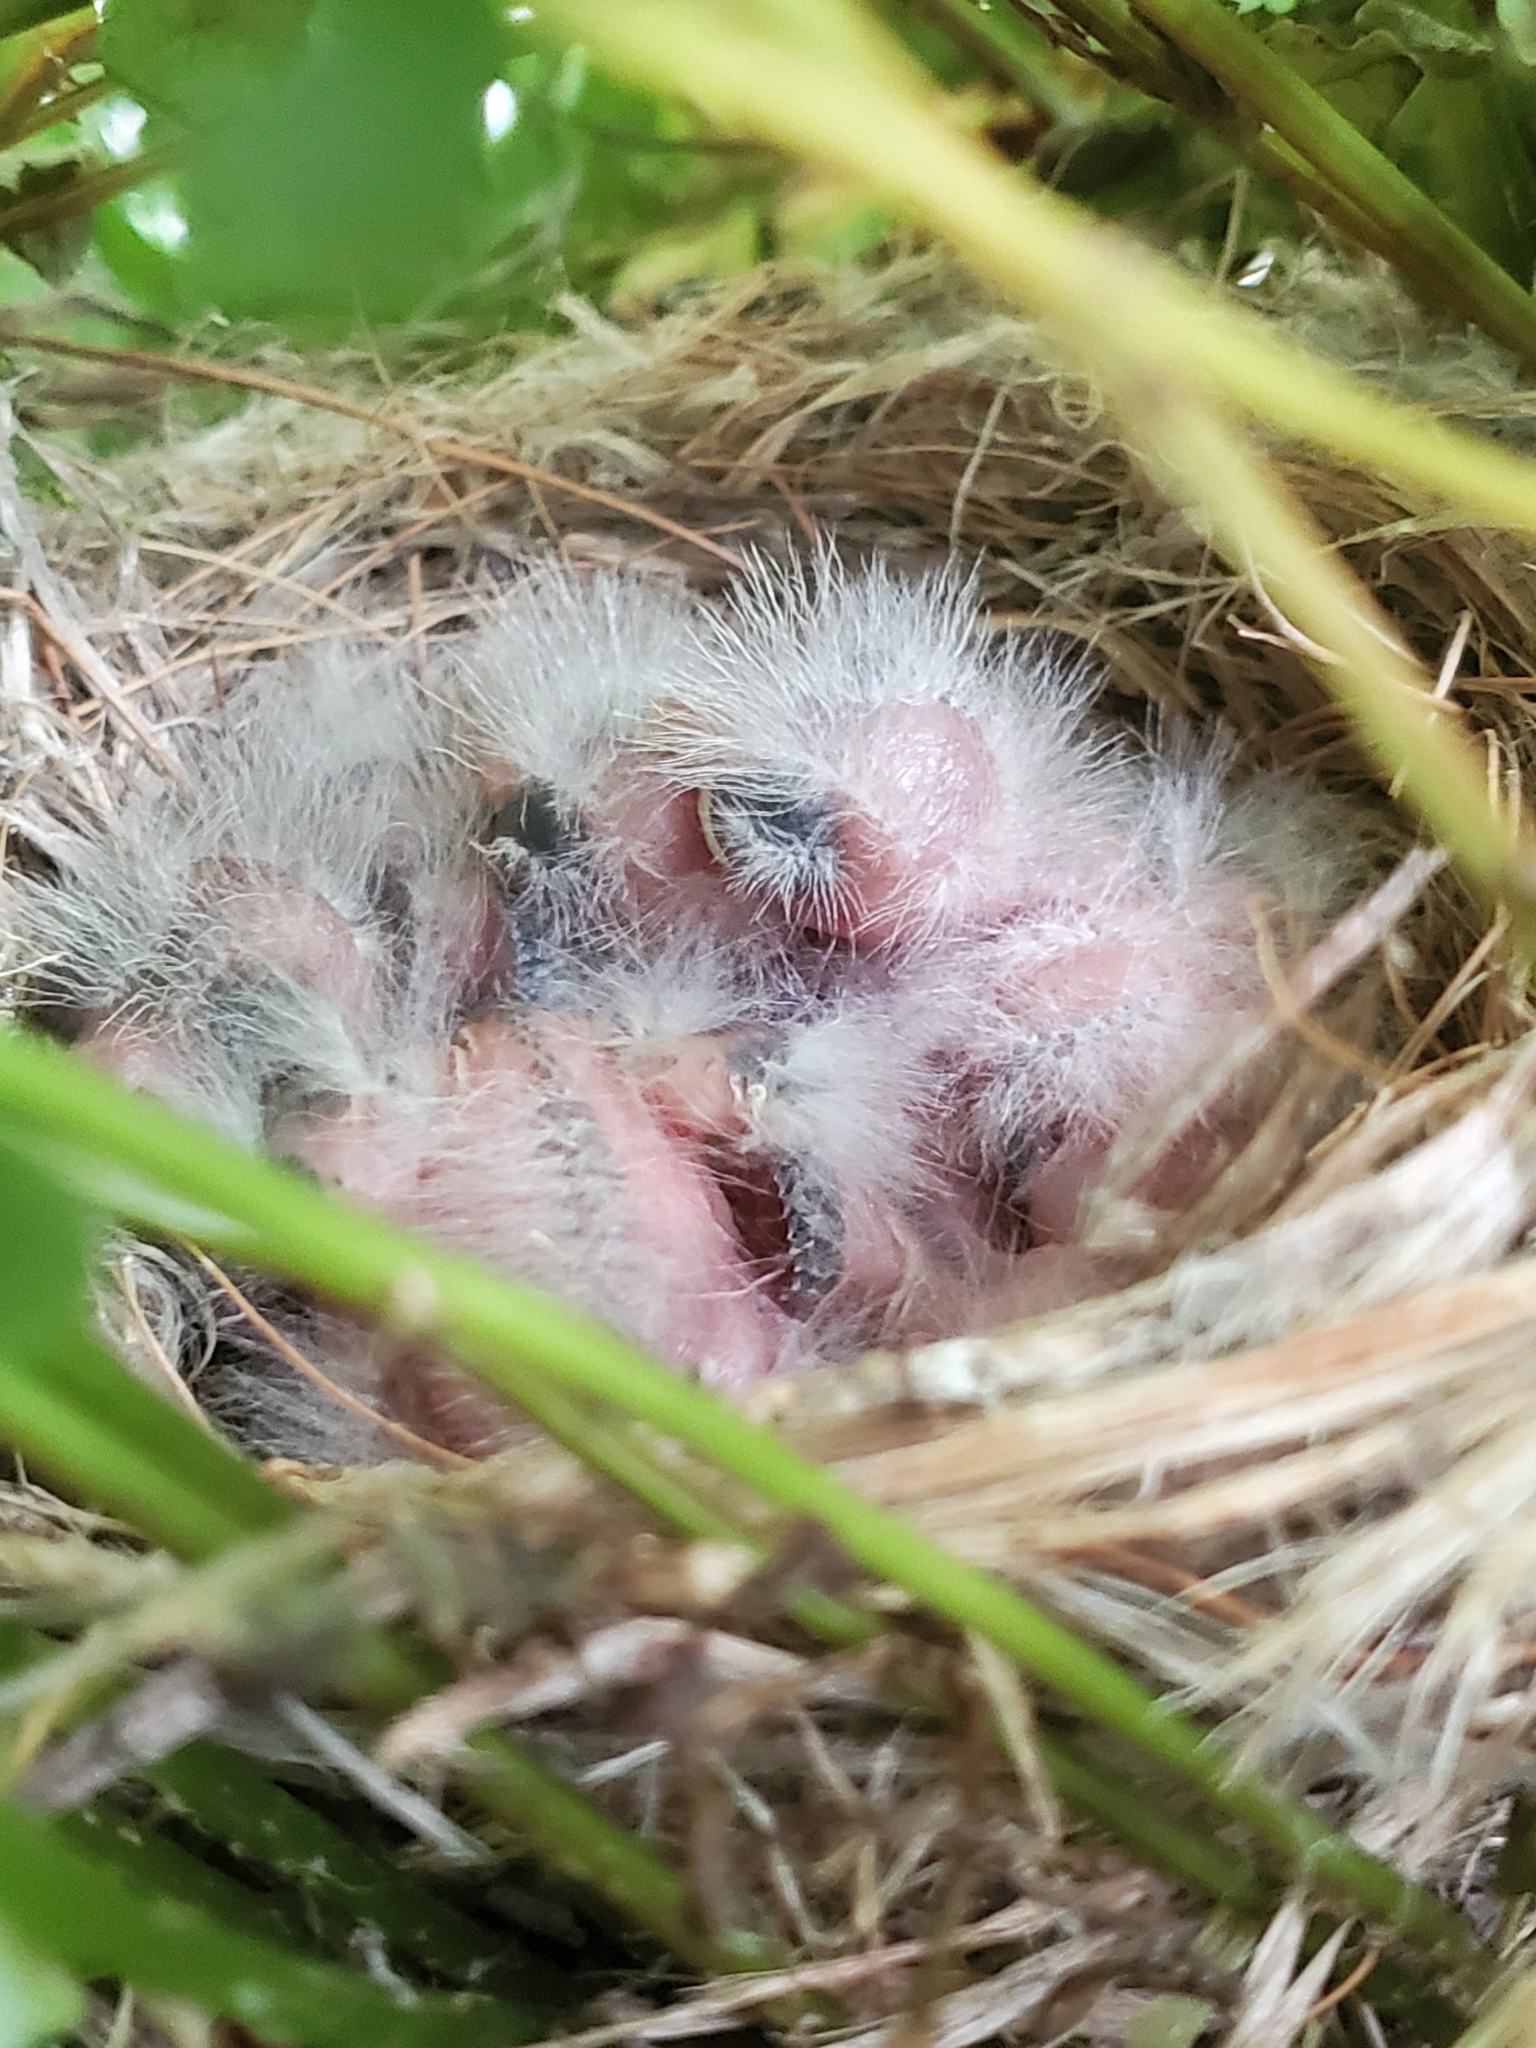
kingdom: Animalia
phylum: Chordata
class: Aves
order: Passeriformes
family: Fringillidae
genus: Haemorhous
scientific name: Haemorhous mexicanus
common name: House finch
